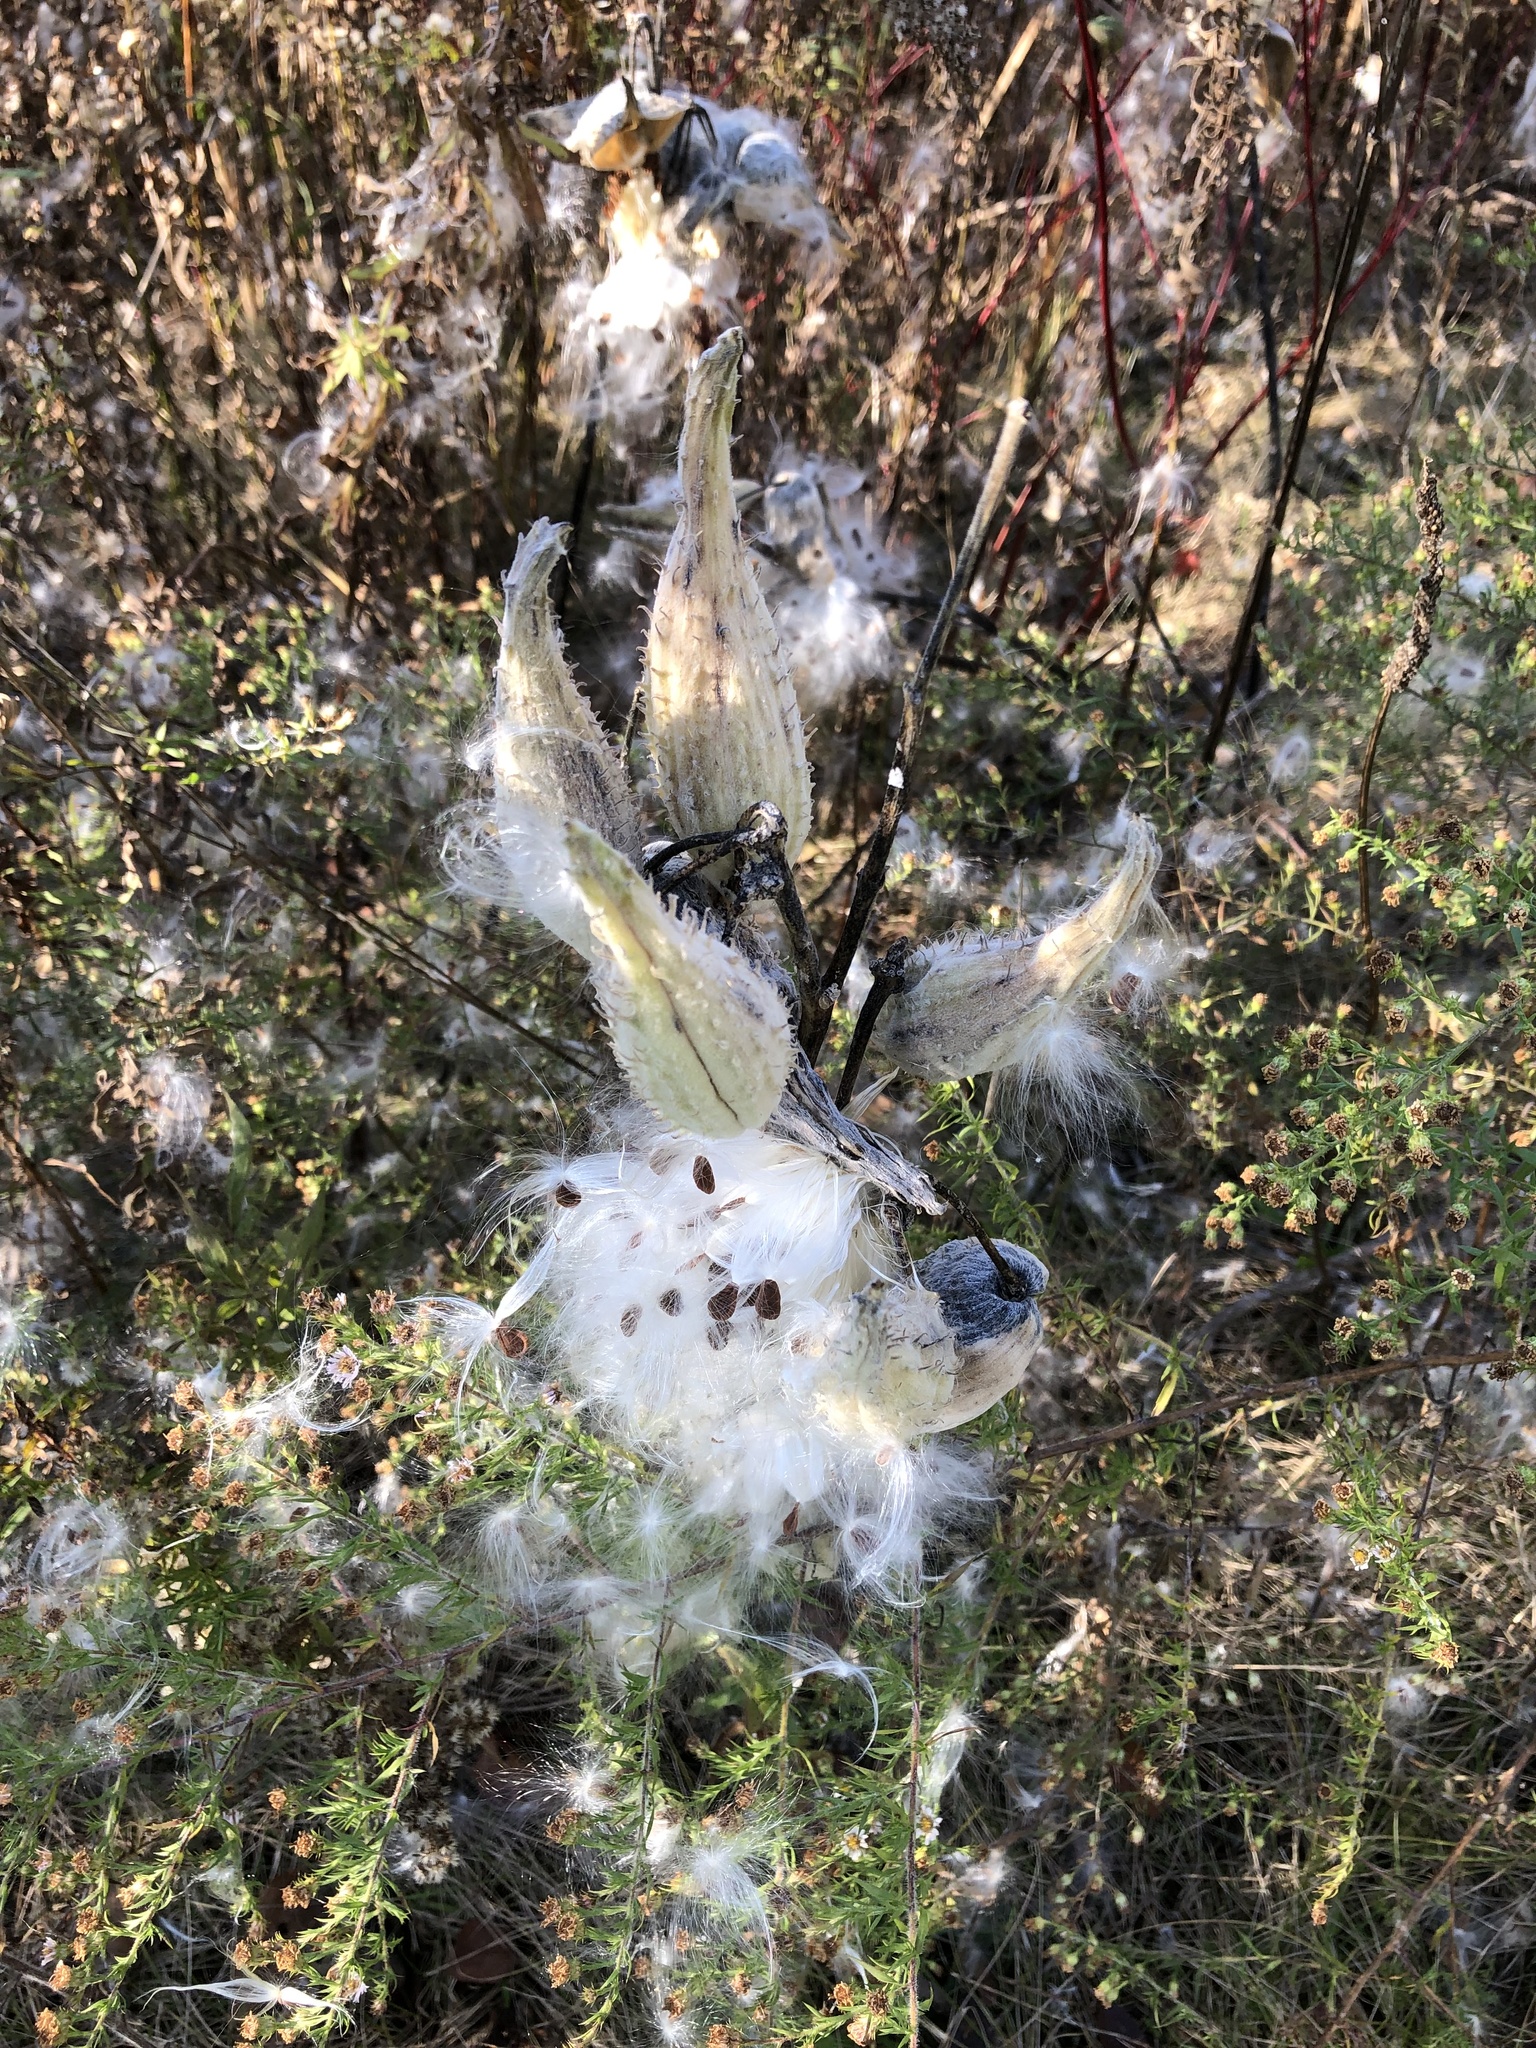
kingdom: Plantae
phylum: Tracheophyta
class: Magnoliopsida
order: Gentianales
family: Apocynaceae
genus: Asclepias
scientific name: Asclepias syriaca
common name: Common milkweed
